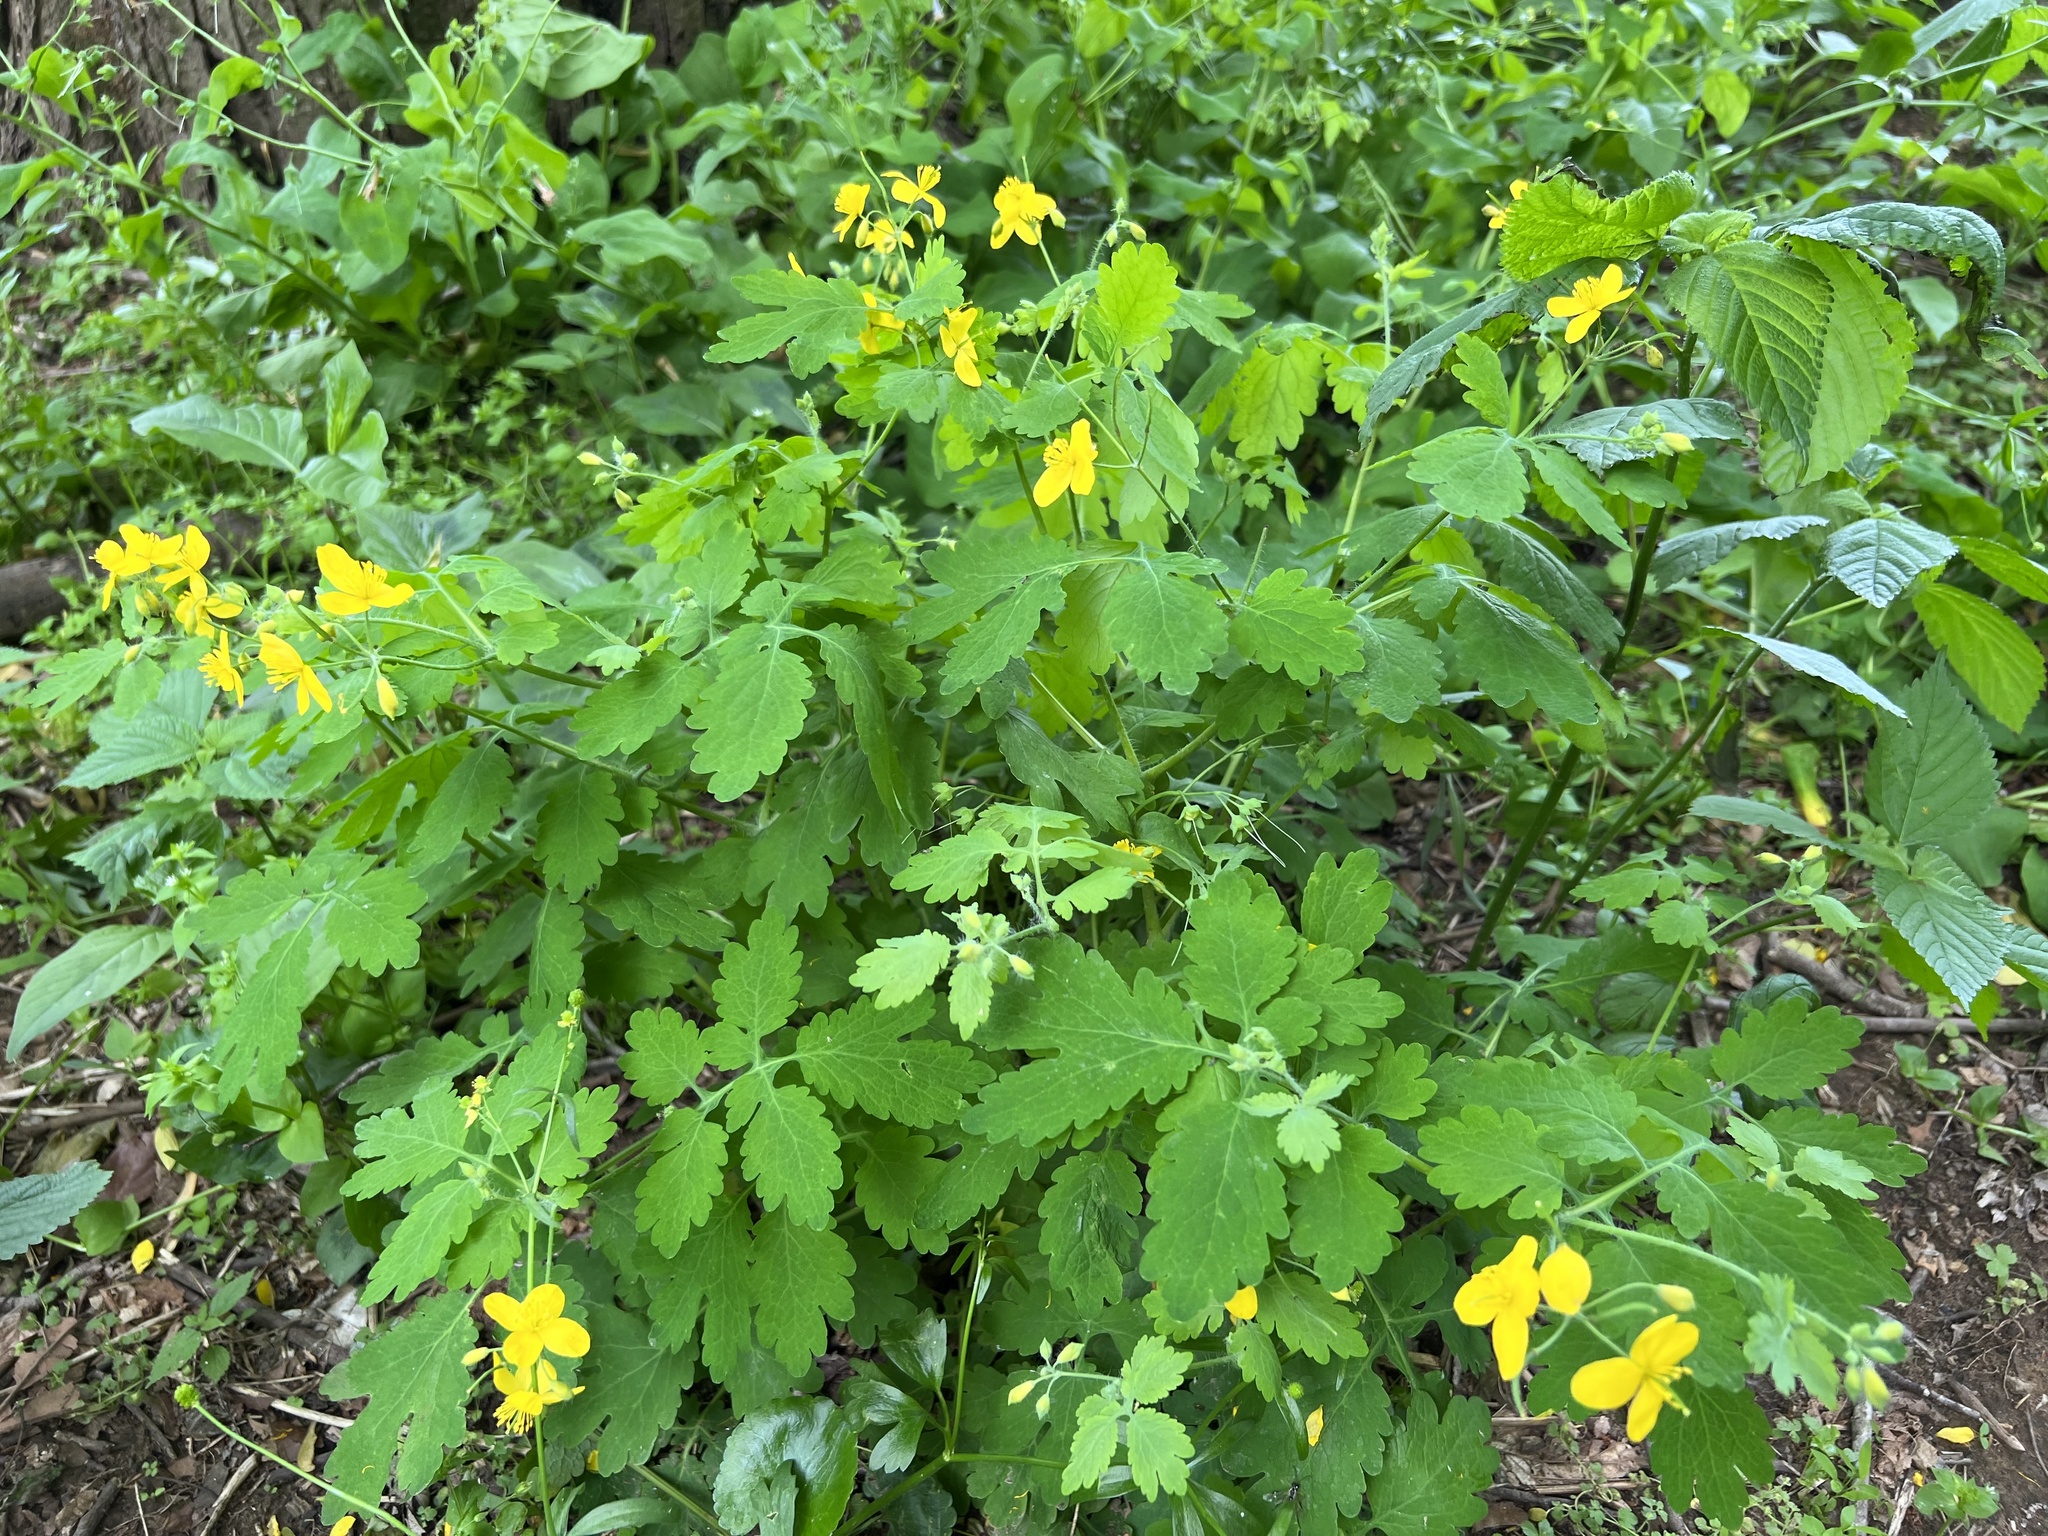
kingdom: Plantae
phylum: Tracheophyta
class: Magnoliopsida
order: Ranunculales
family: Papaveraceae
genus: Chelidonium
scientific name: Chelidonium majus
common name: Greater celandine
